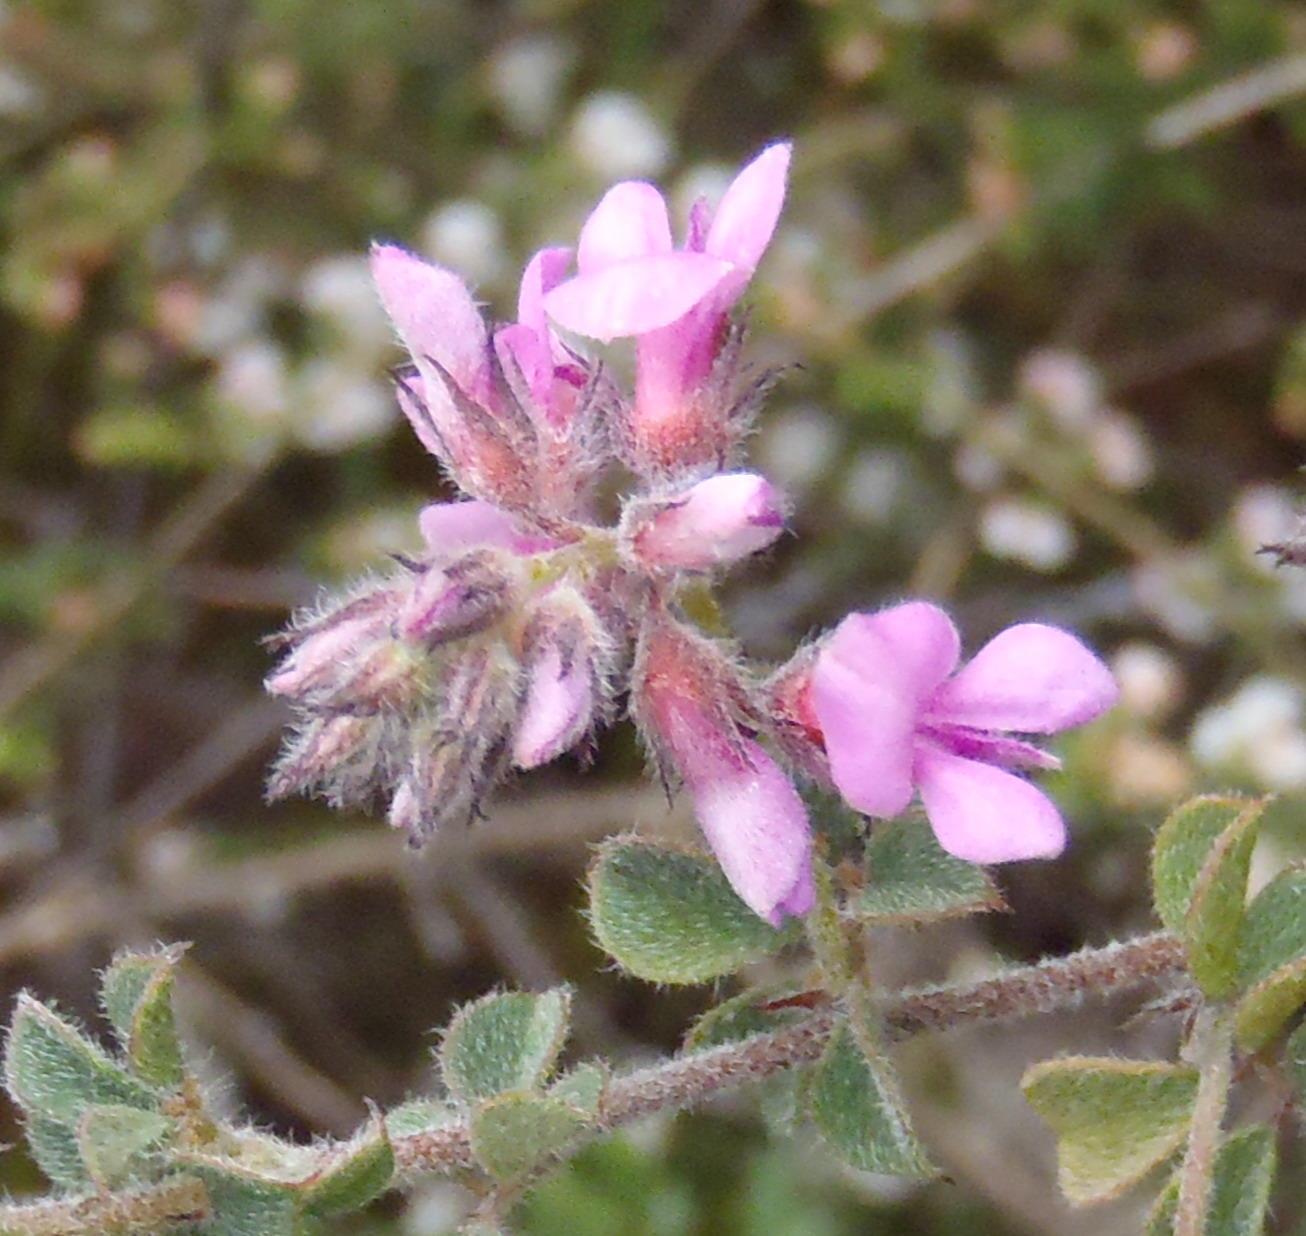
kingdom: Plantae
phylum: Tracheophyta
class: Magnoliopsida
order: Fabales
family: Fabaceae
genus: Indigofera
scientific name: Indigofera alopecuroides
